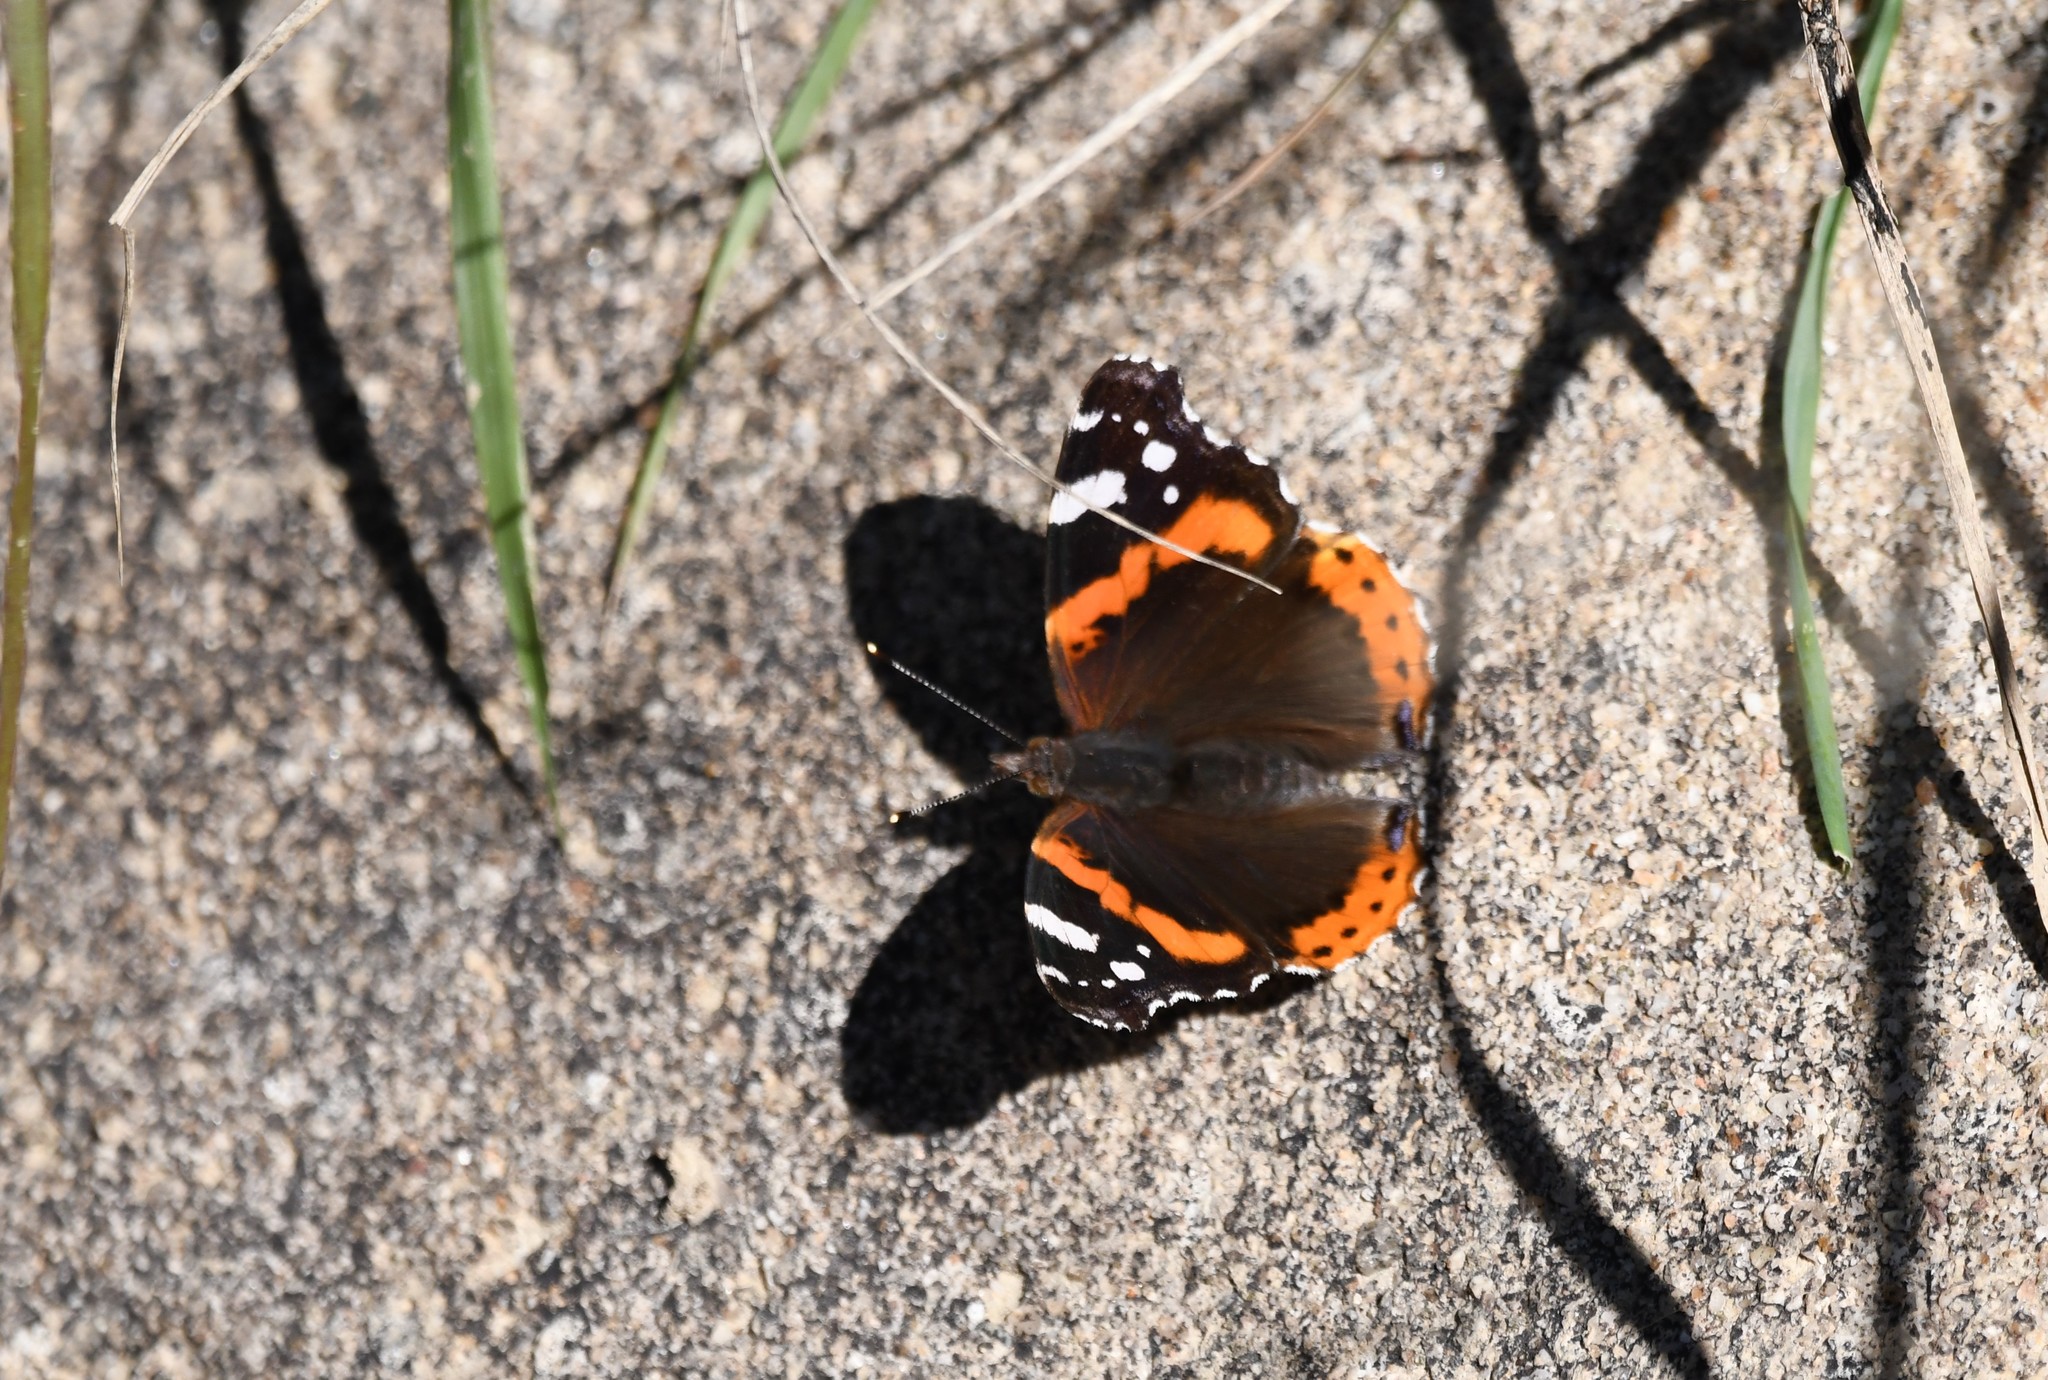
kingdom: Animalia
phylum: Arthropoda
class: Insecta
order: Lepidoptera
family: Nymphalidae
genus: Vanessa
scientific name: Vanessa atalanta
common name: Red admiral
